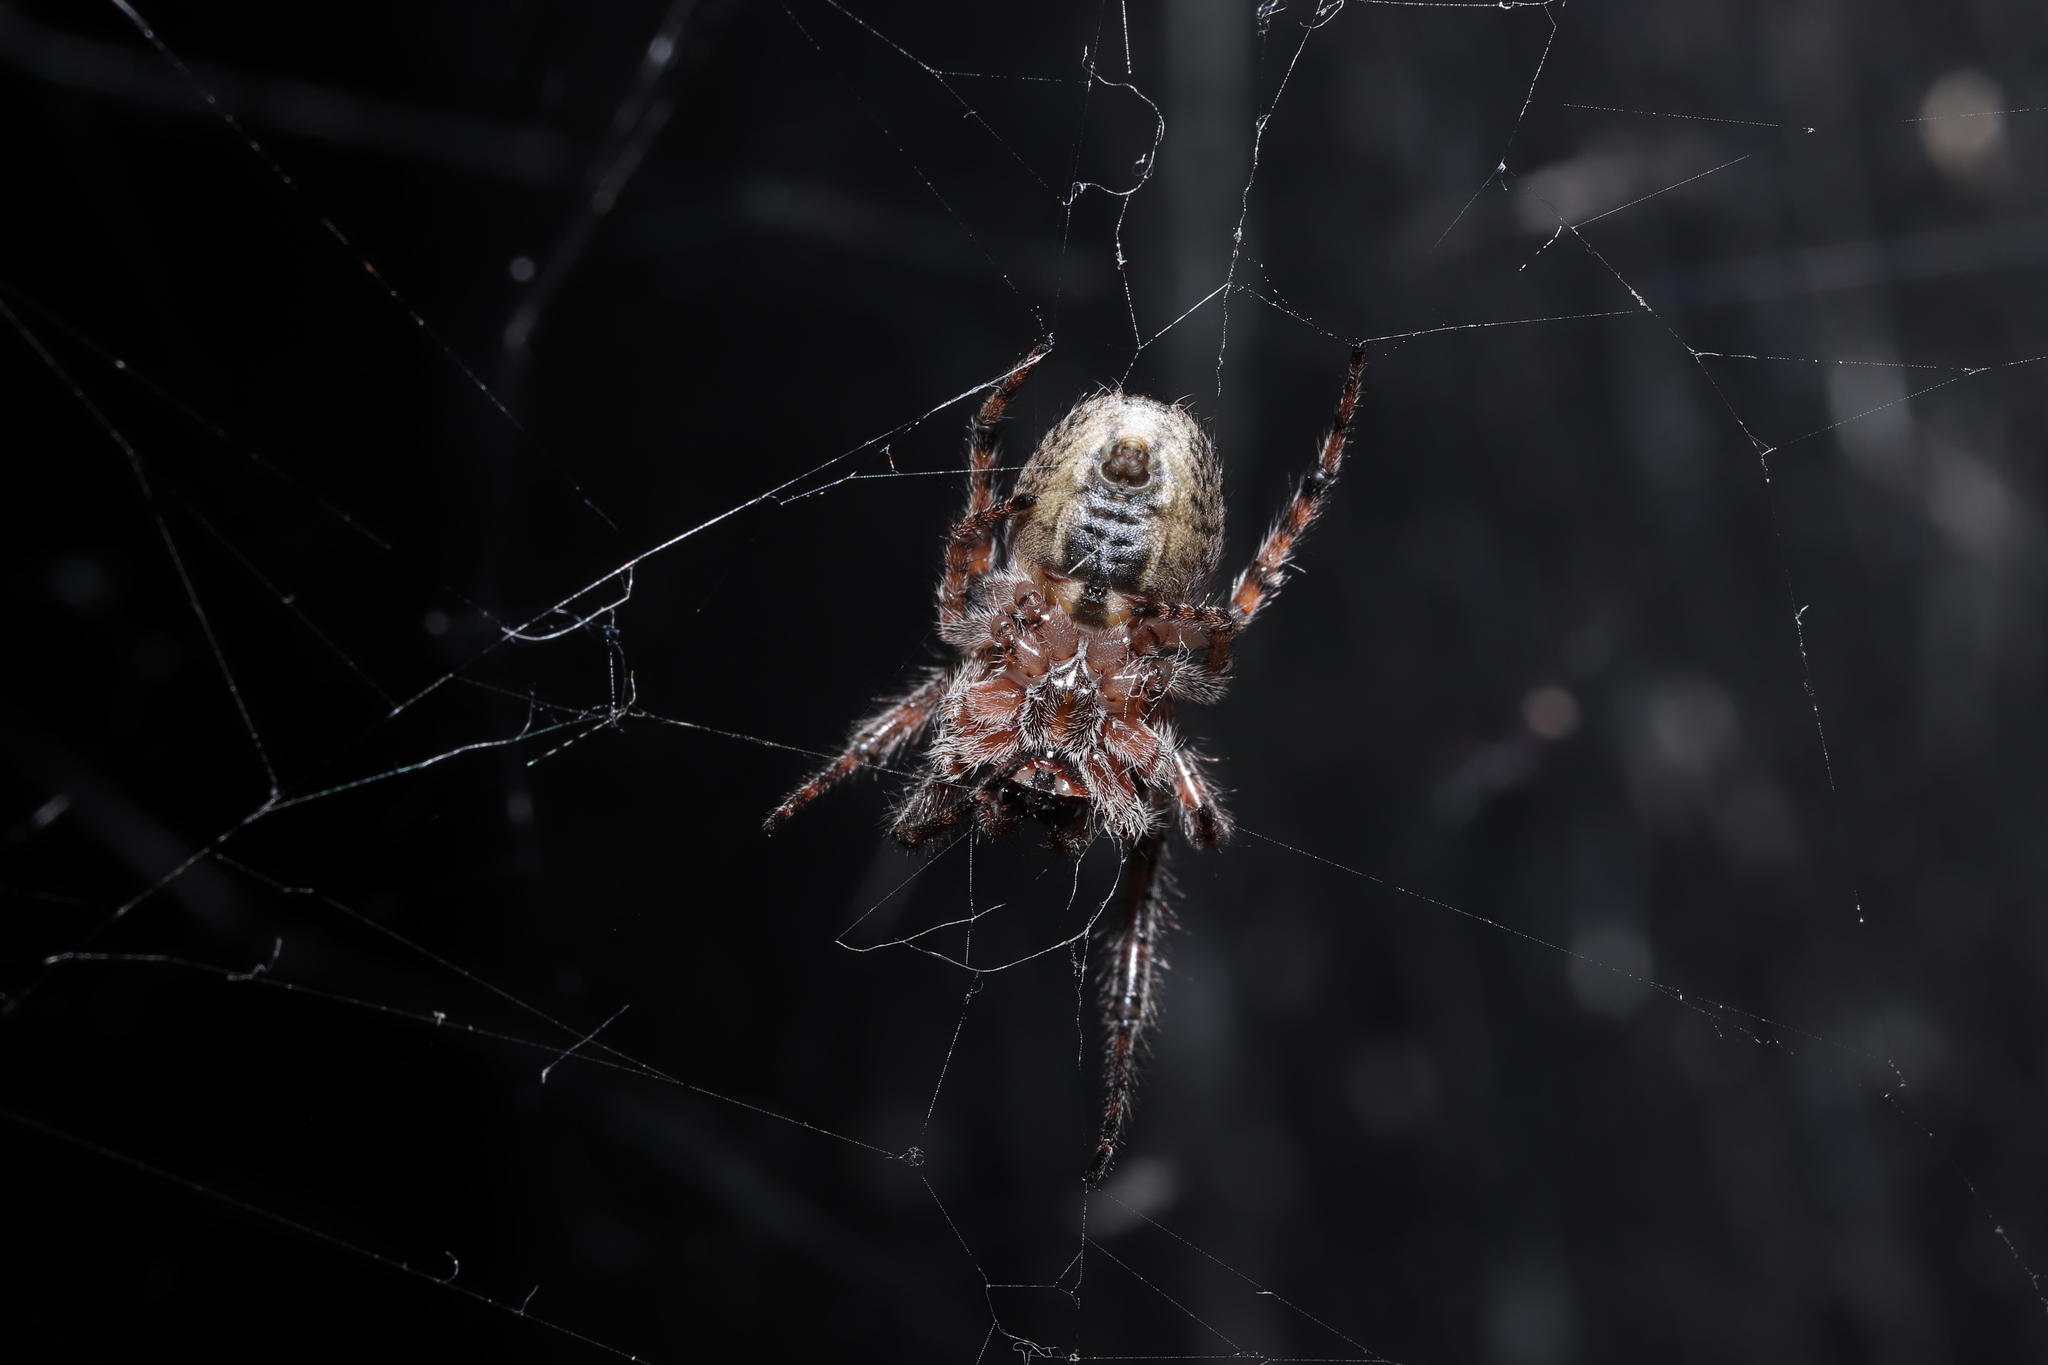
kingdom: Animalia
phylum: Arthropoda
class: Arachnida
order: Araneae
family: Araneidae
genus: Yaginumia
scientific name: Yaginumia sia
